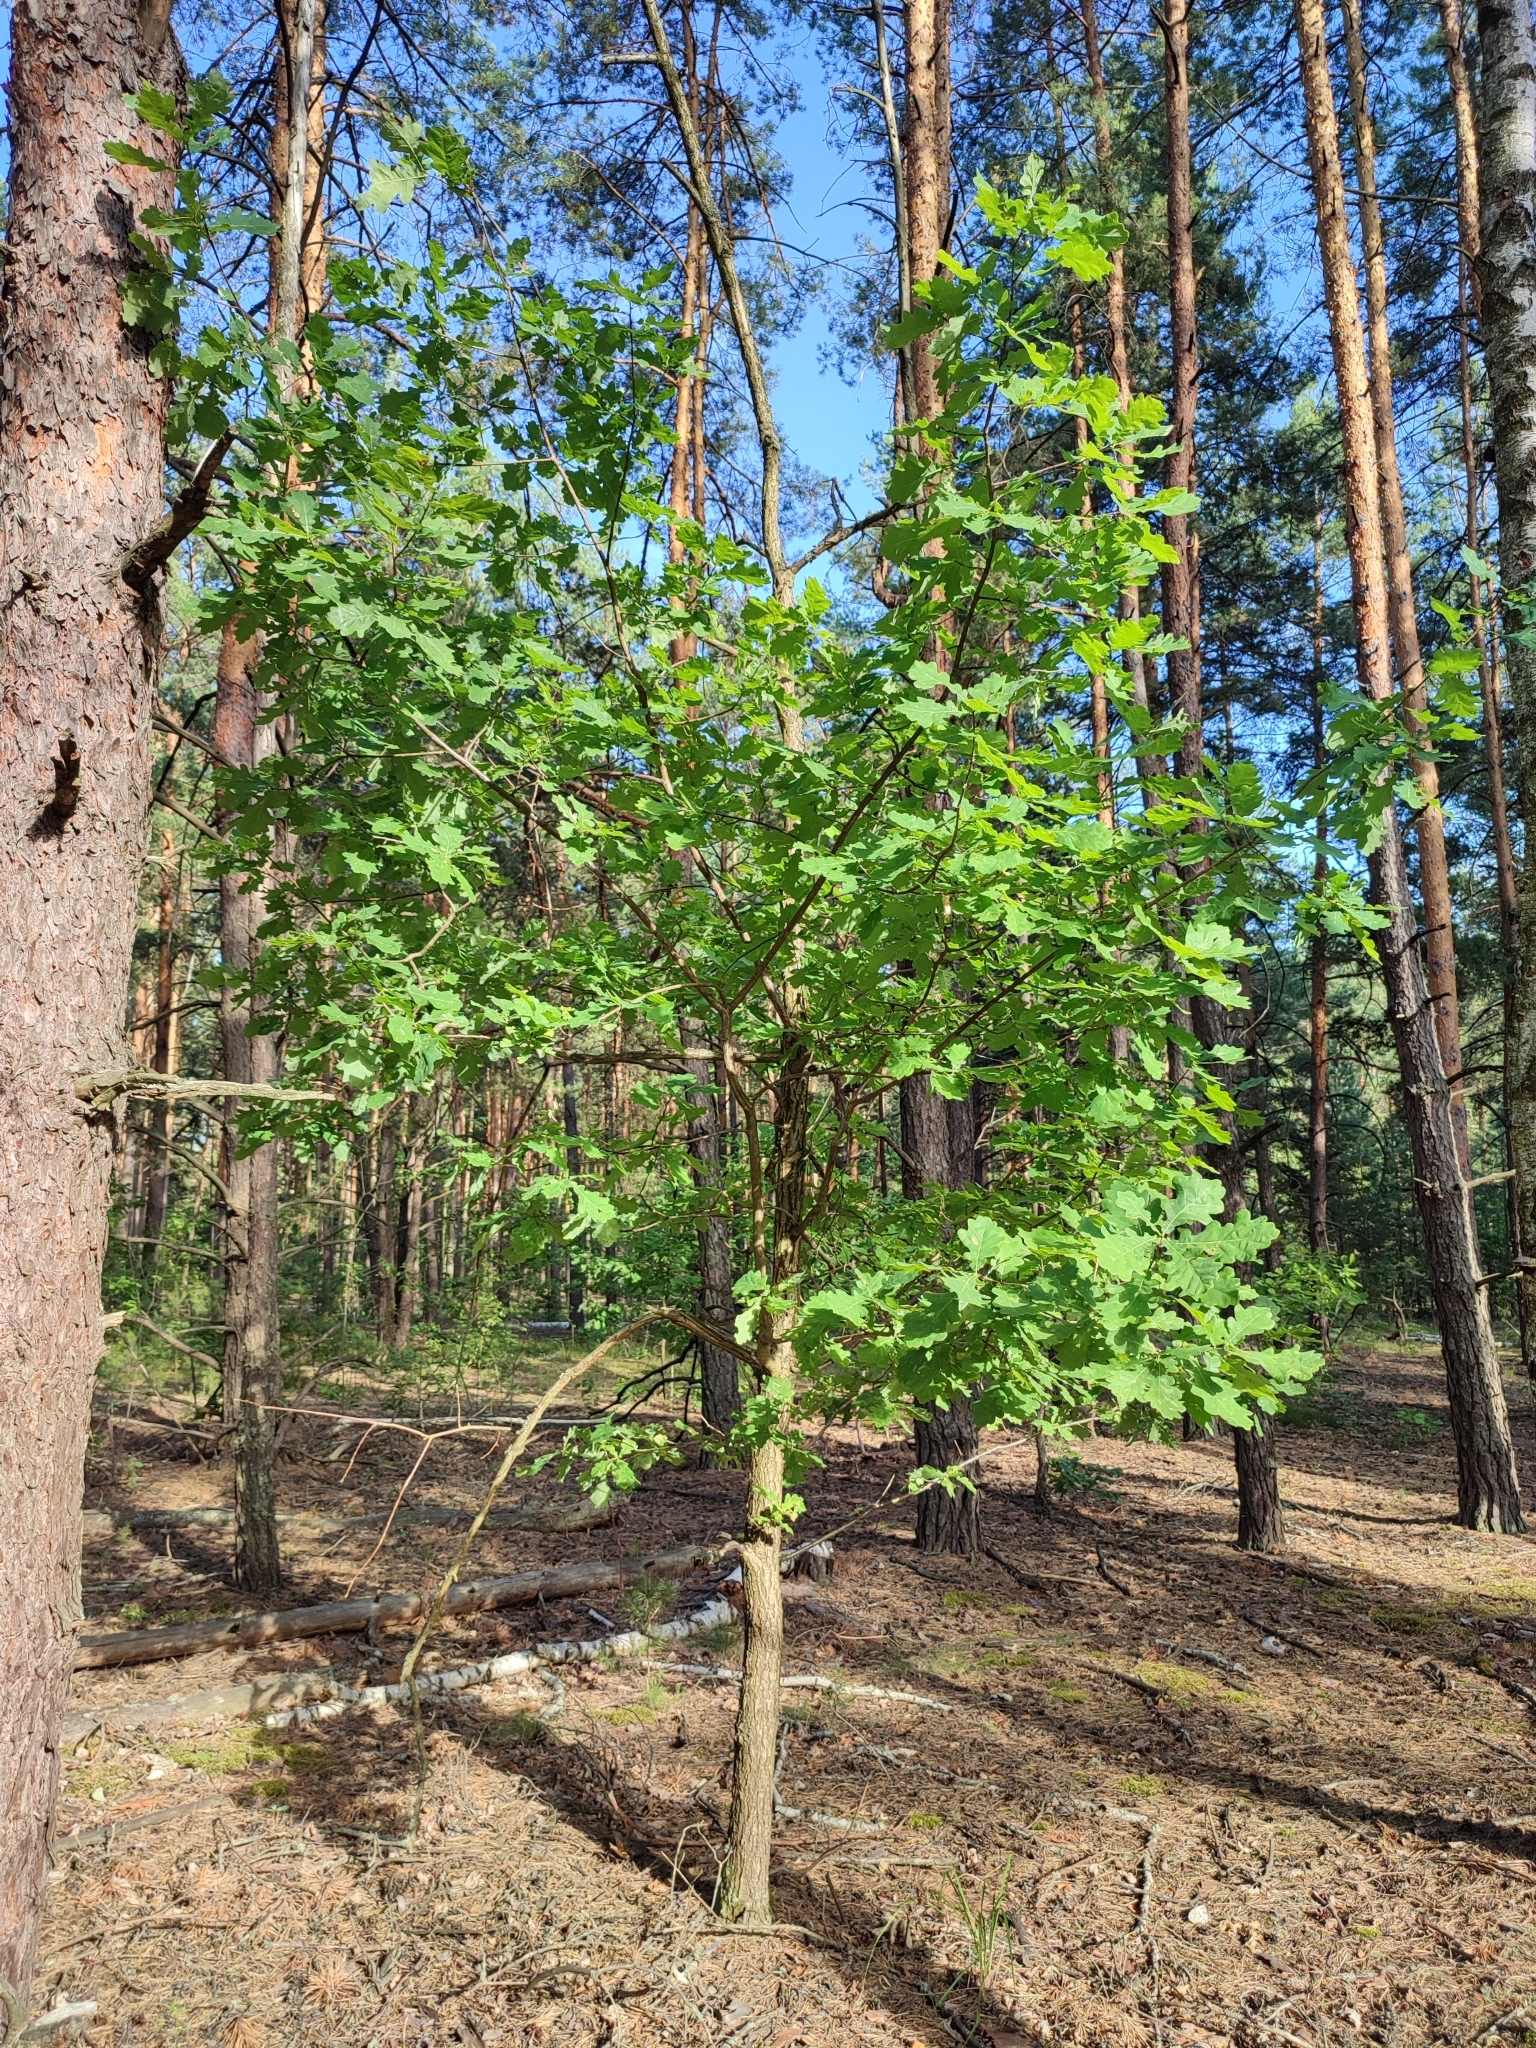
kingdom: Plantae
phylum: Tracheophyta
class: Magnoliopsida
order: Fagales
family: Fagaceae
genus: Quercus
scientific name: Quercus robur
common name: Pedunculate oak
